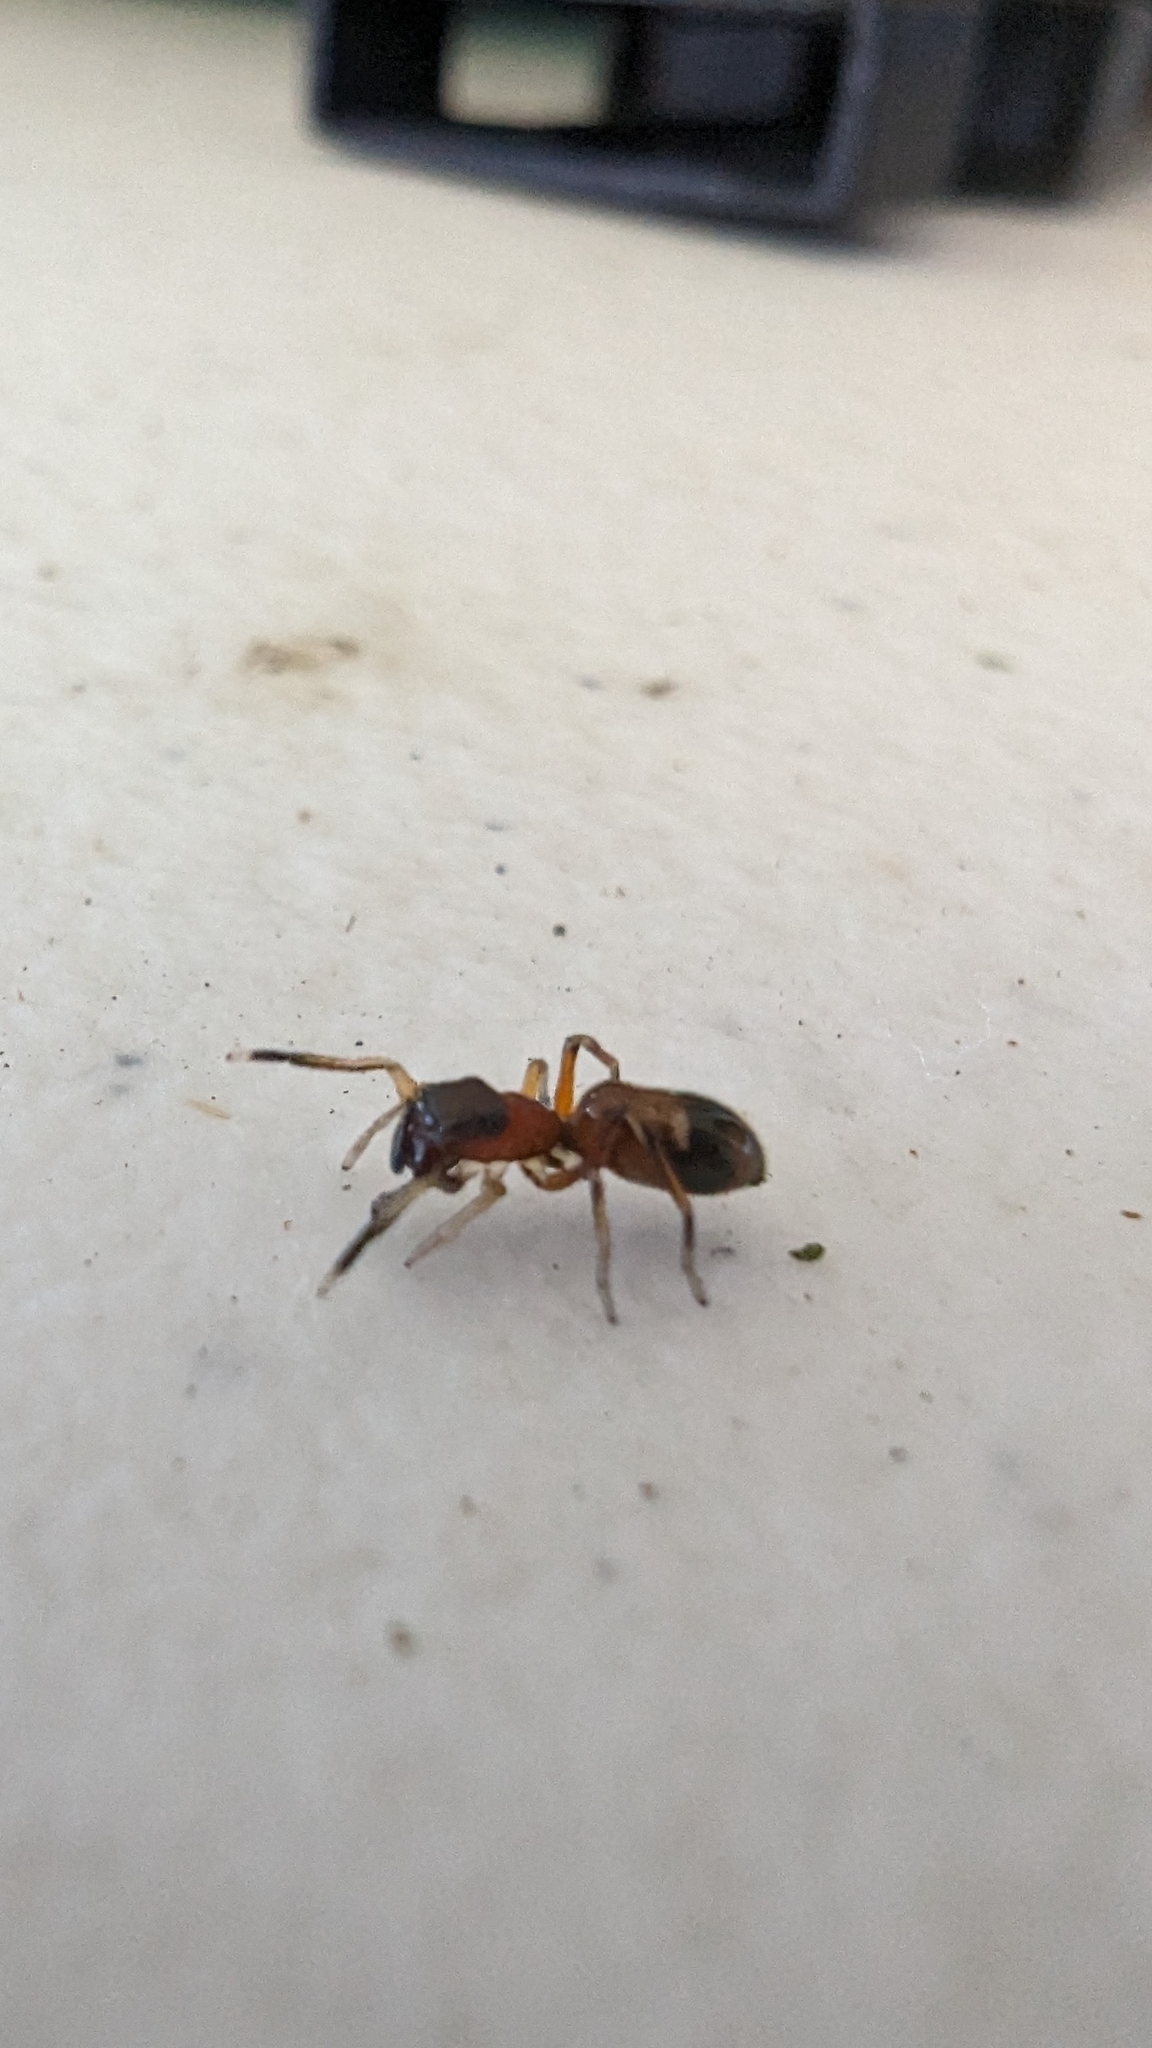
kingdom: Animalia
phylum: Arthropoda
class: Arachnida
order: Araneae
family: Salticidae
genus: Myrmarachne
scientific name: Myrmarachne formicaria
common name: Ant mimic jumping spider
